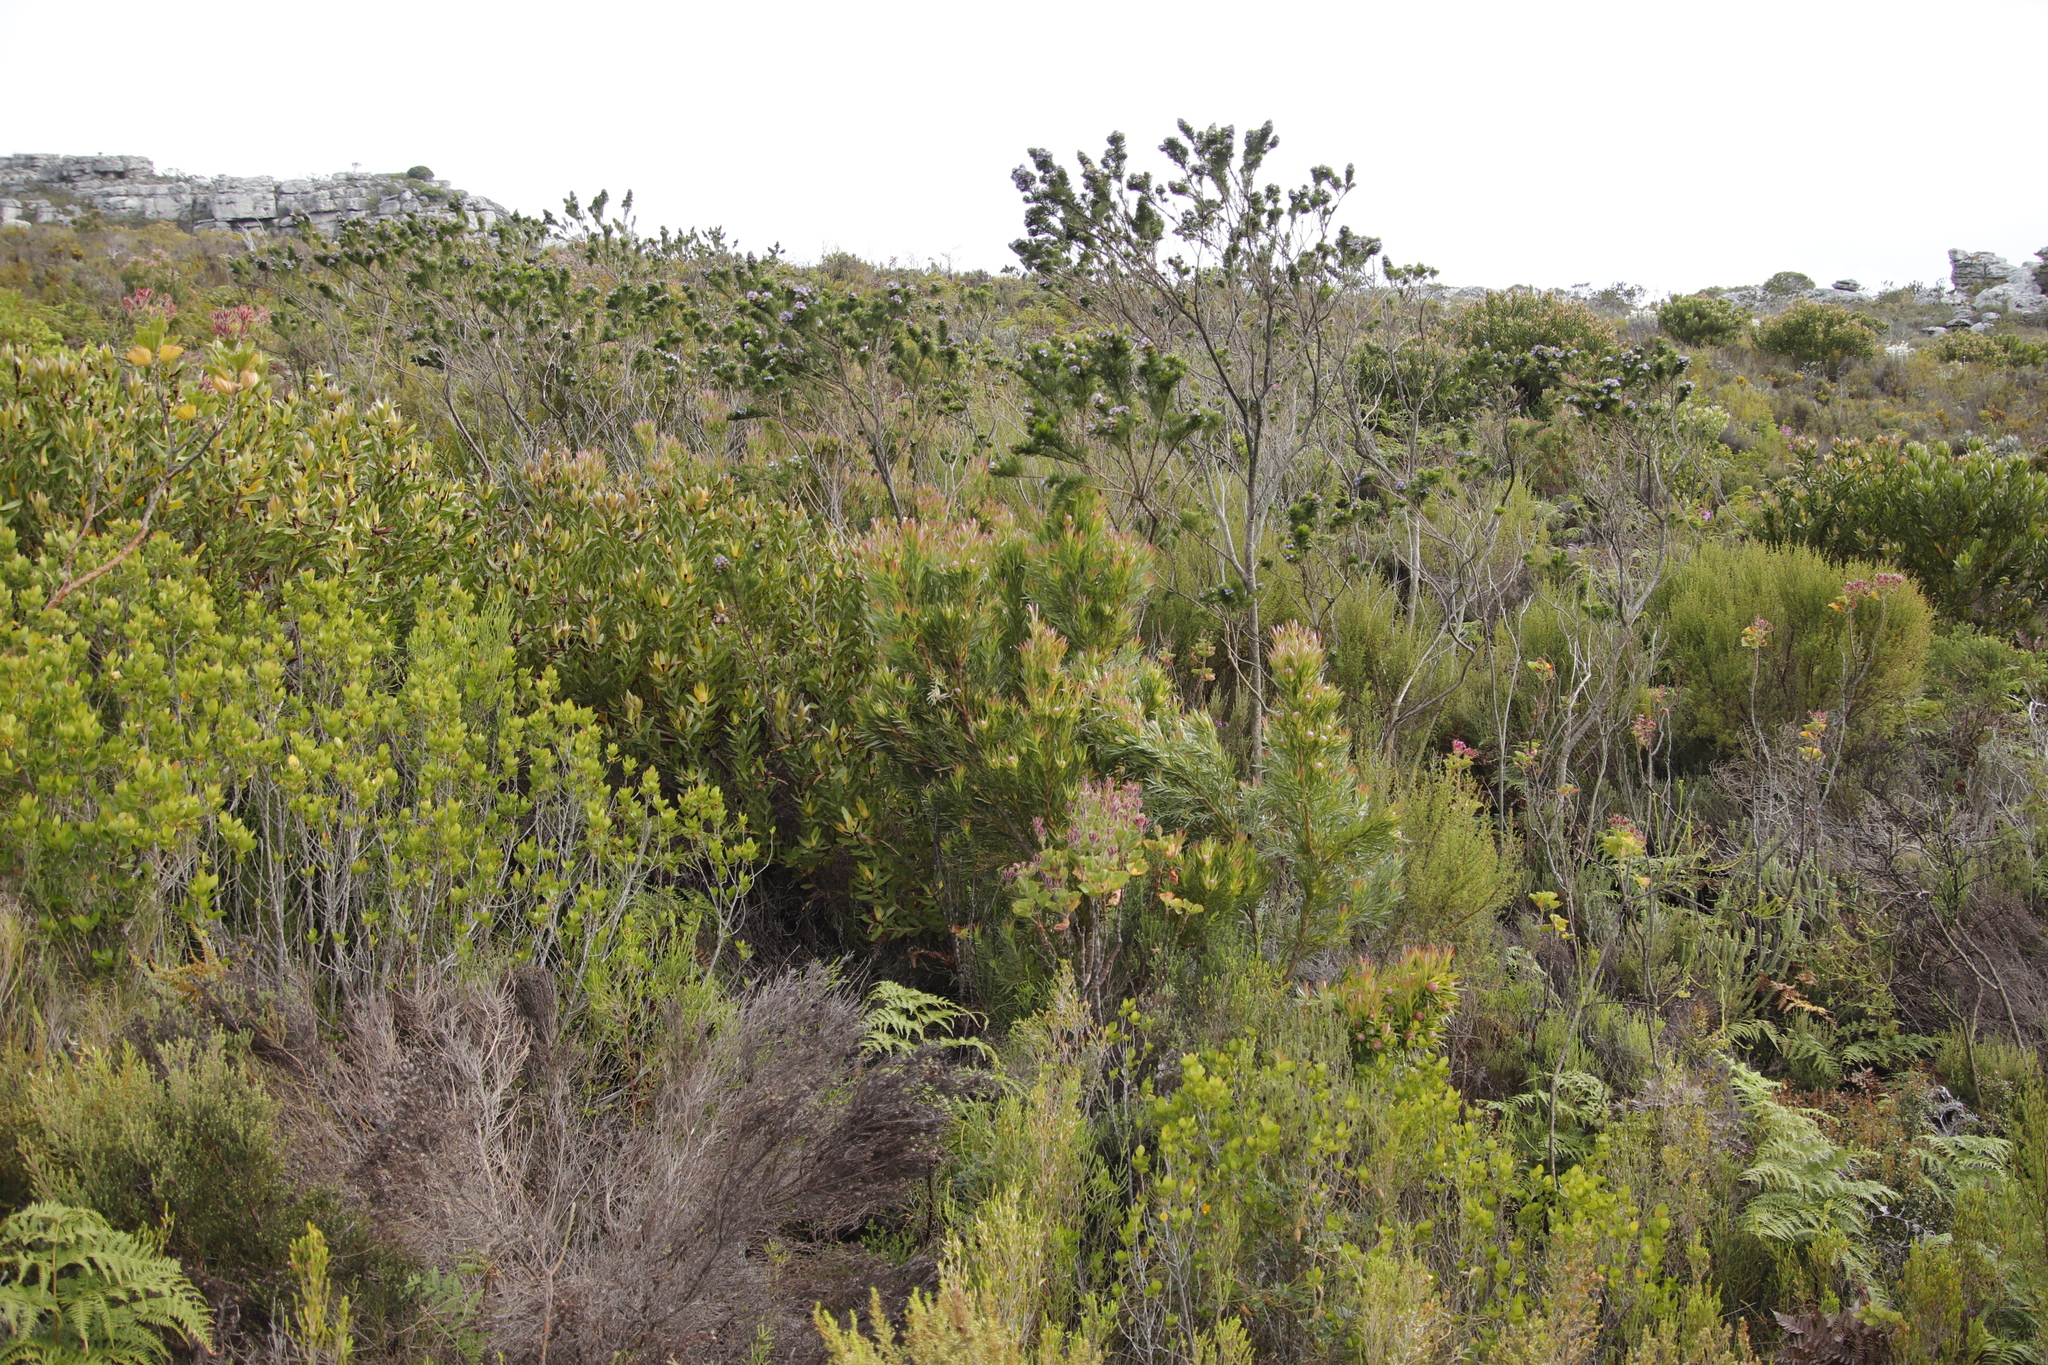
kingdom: Plantae
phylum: Tracheophyta
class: Magnoliopsida
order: Proteales
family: Proteaceae
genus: Leucadendron
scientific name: Leucadendron xanthoconus
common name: Sickle-leaf conebush
